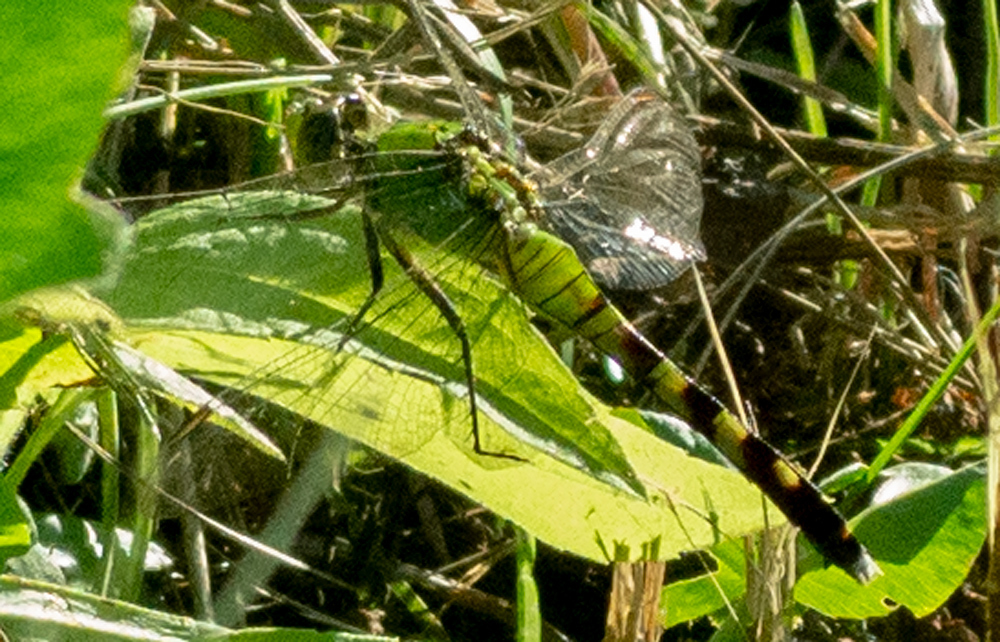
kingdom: Animalia
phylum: Arthropoda
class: Insecta
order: Odonata
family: Libellulidae
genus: Erythemis
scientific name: Erythemis simplicicollis
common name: Eastern pondhawk
